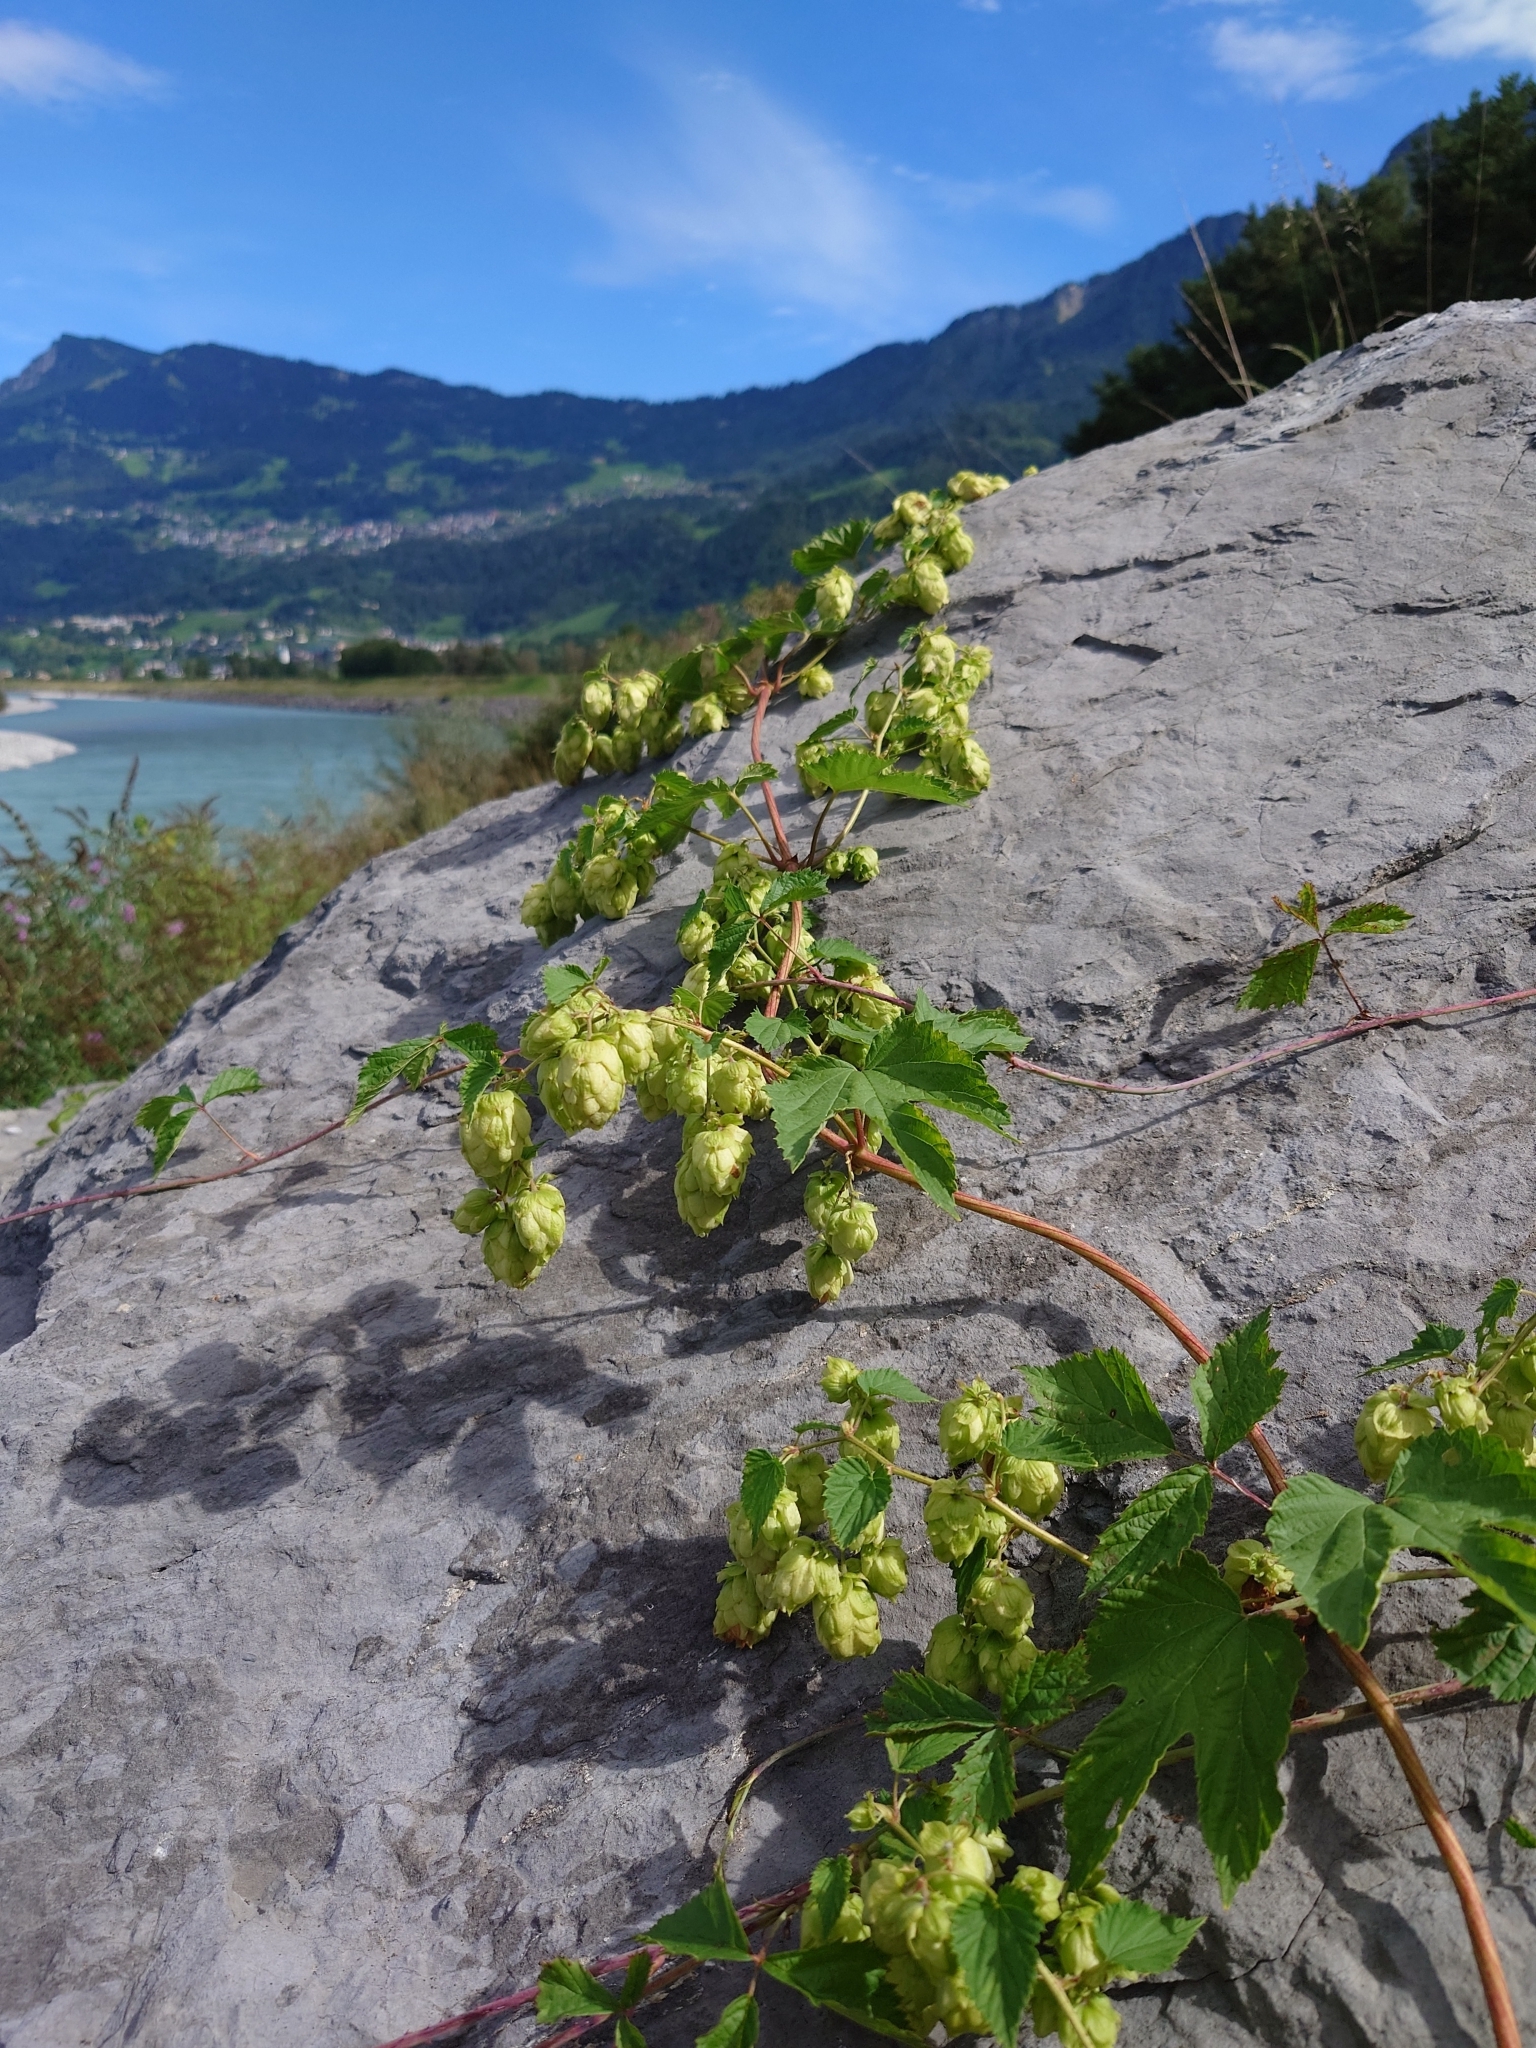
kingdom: Plantae
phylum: Tracheophyta
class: Magnoliopsida
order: Rosales
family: Cannabaceae
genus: Humulus
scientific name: Humulus lupulus
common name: Hop
